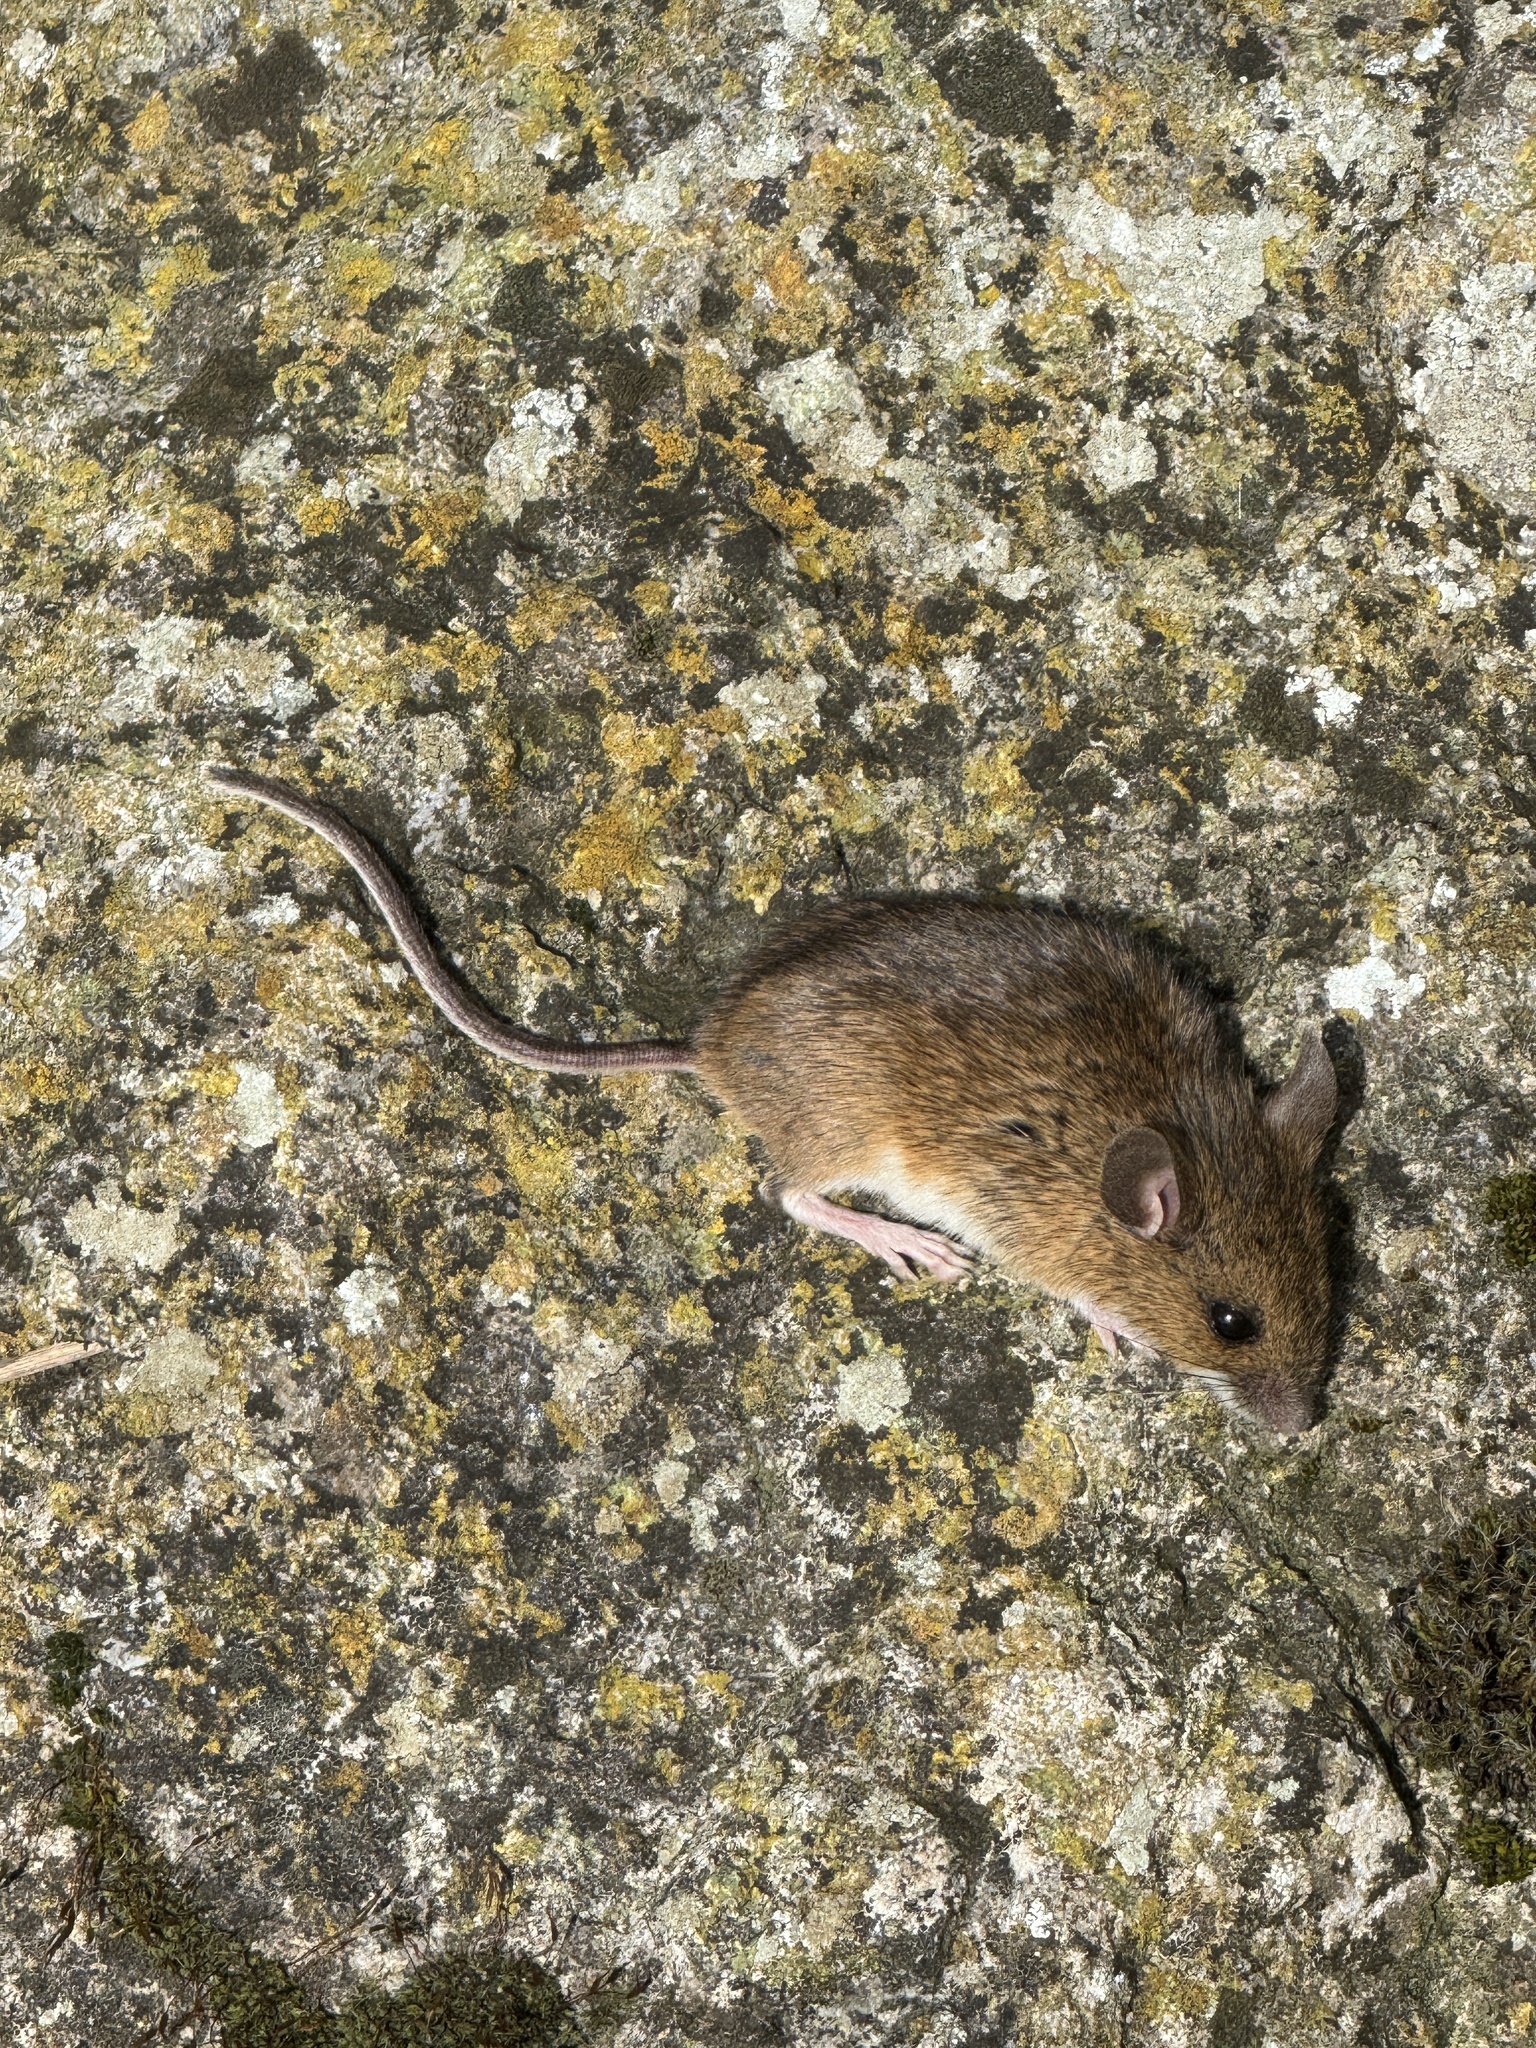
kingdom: Animalia
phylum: Chordata
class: Mammalia
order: Rodentia
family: Muridae
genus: Apodemus
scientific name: Apodemus sylvaticus
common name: Wood mouse
